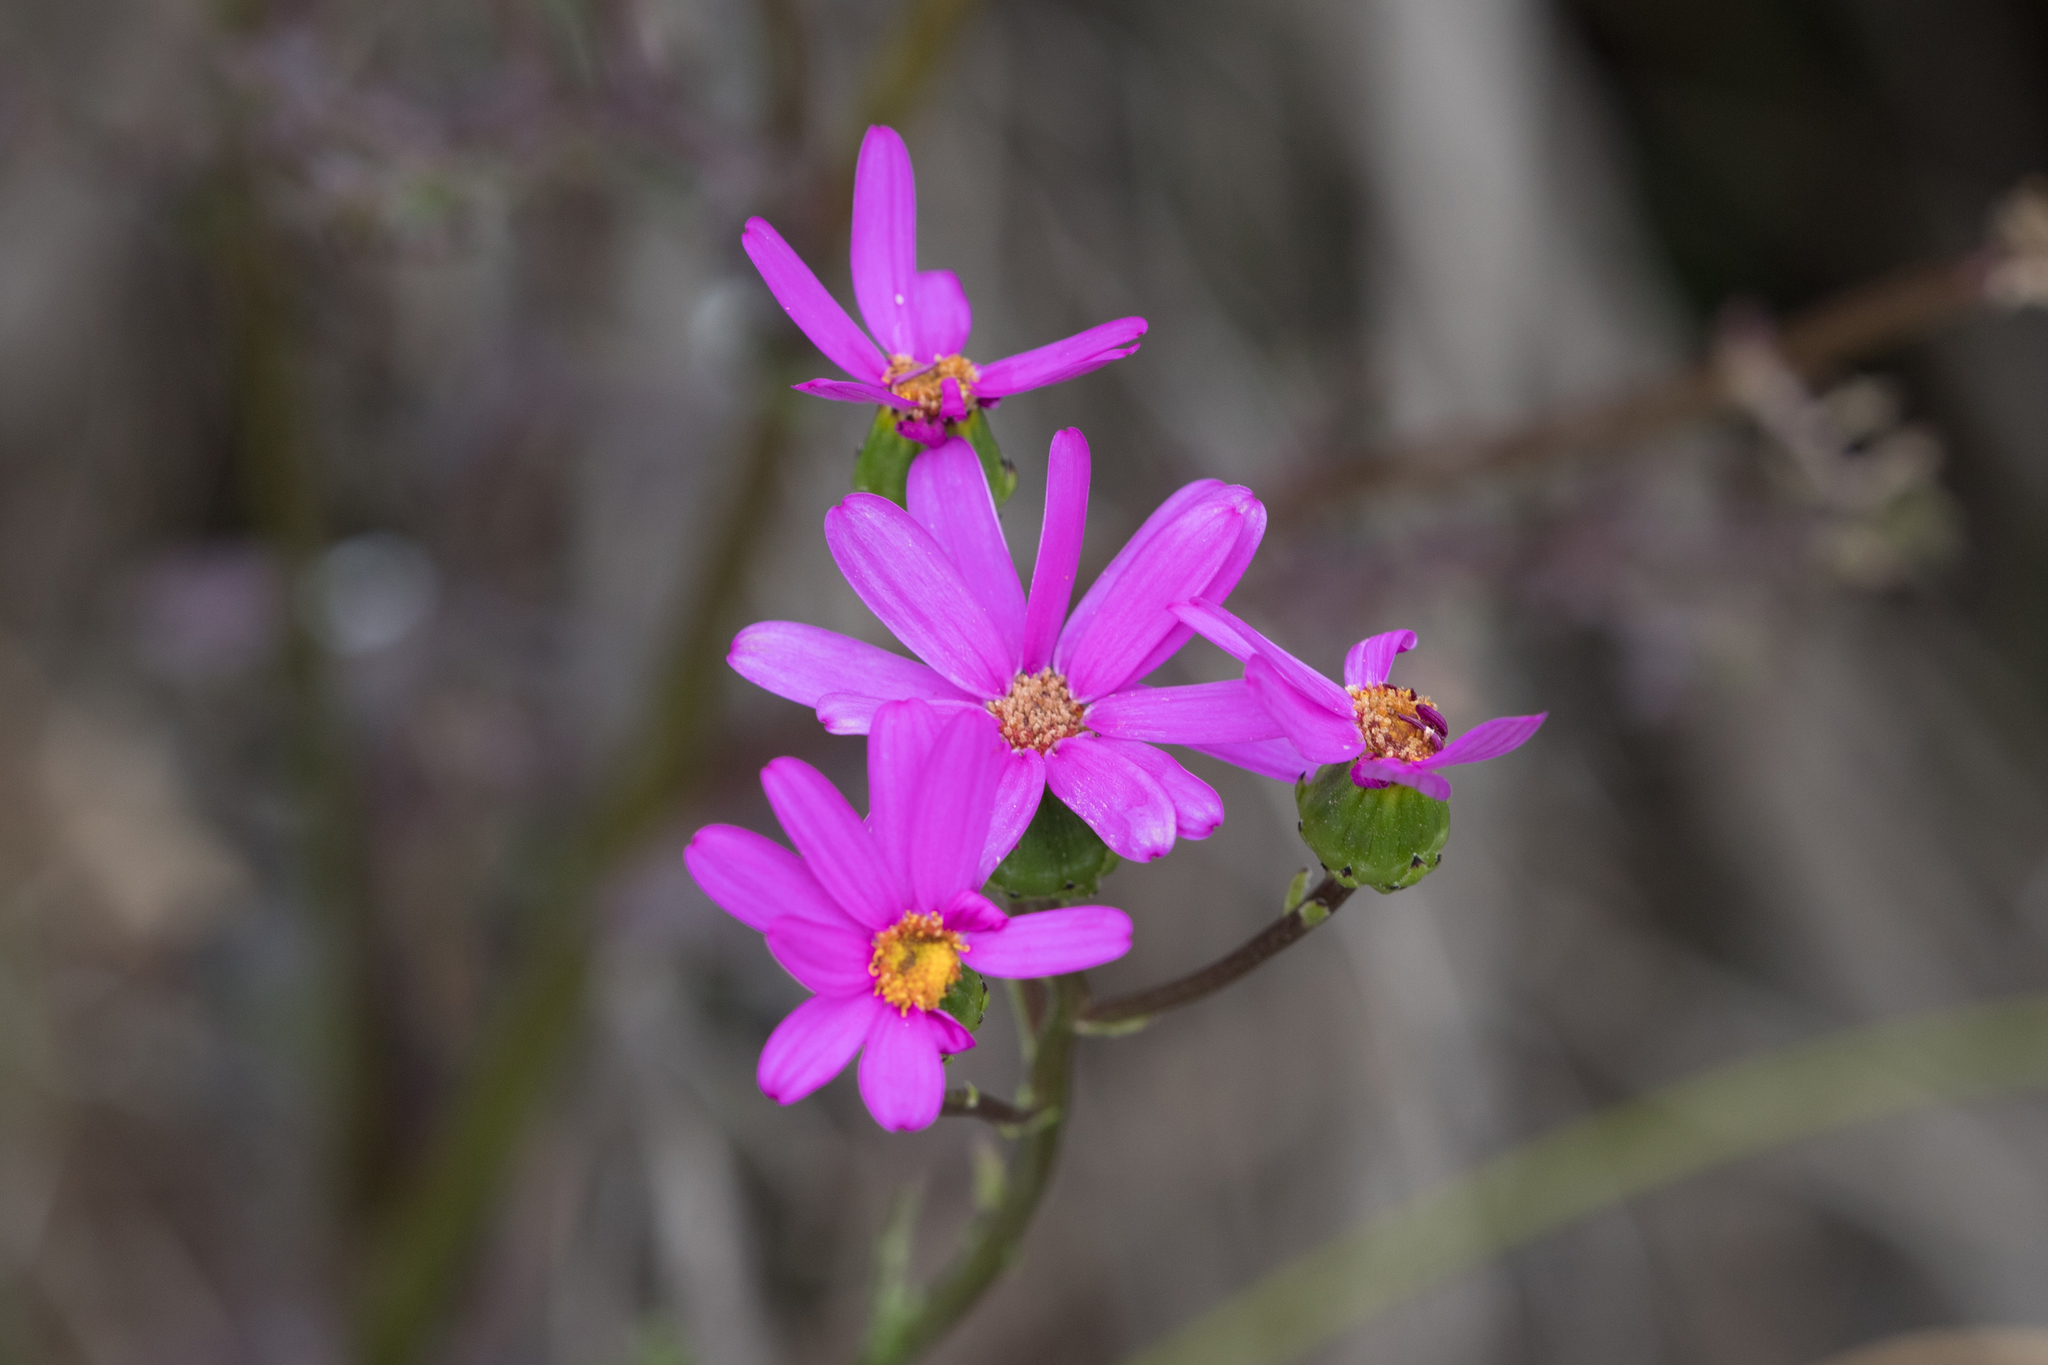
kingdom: Plantae
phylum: Tracheophyta
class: Magnoliopsida
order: Asterales
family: Asteraceae
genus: Senecio
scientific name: Senecio elegans
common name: Purple groundsel
